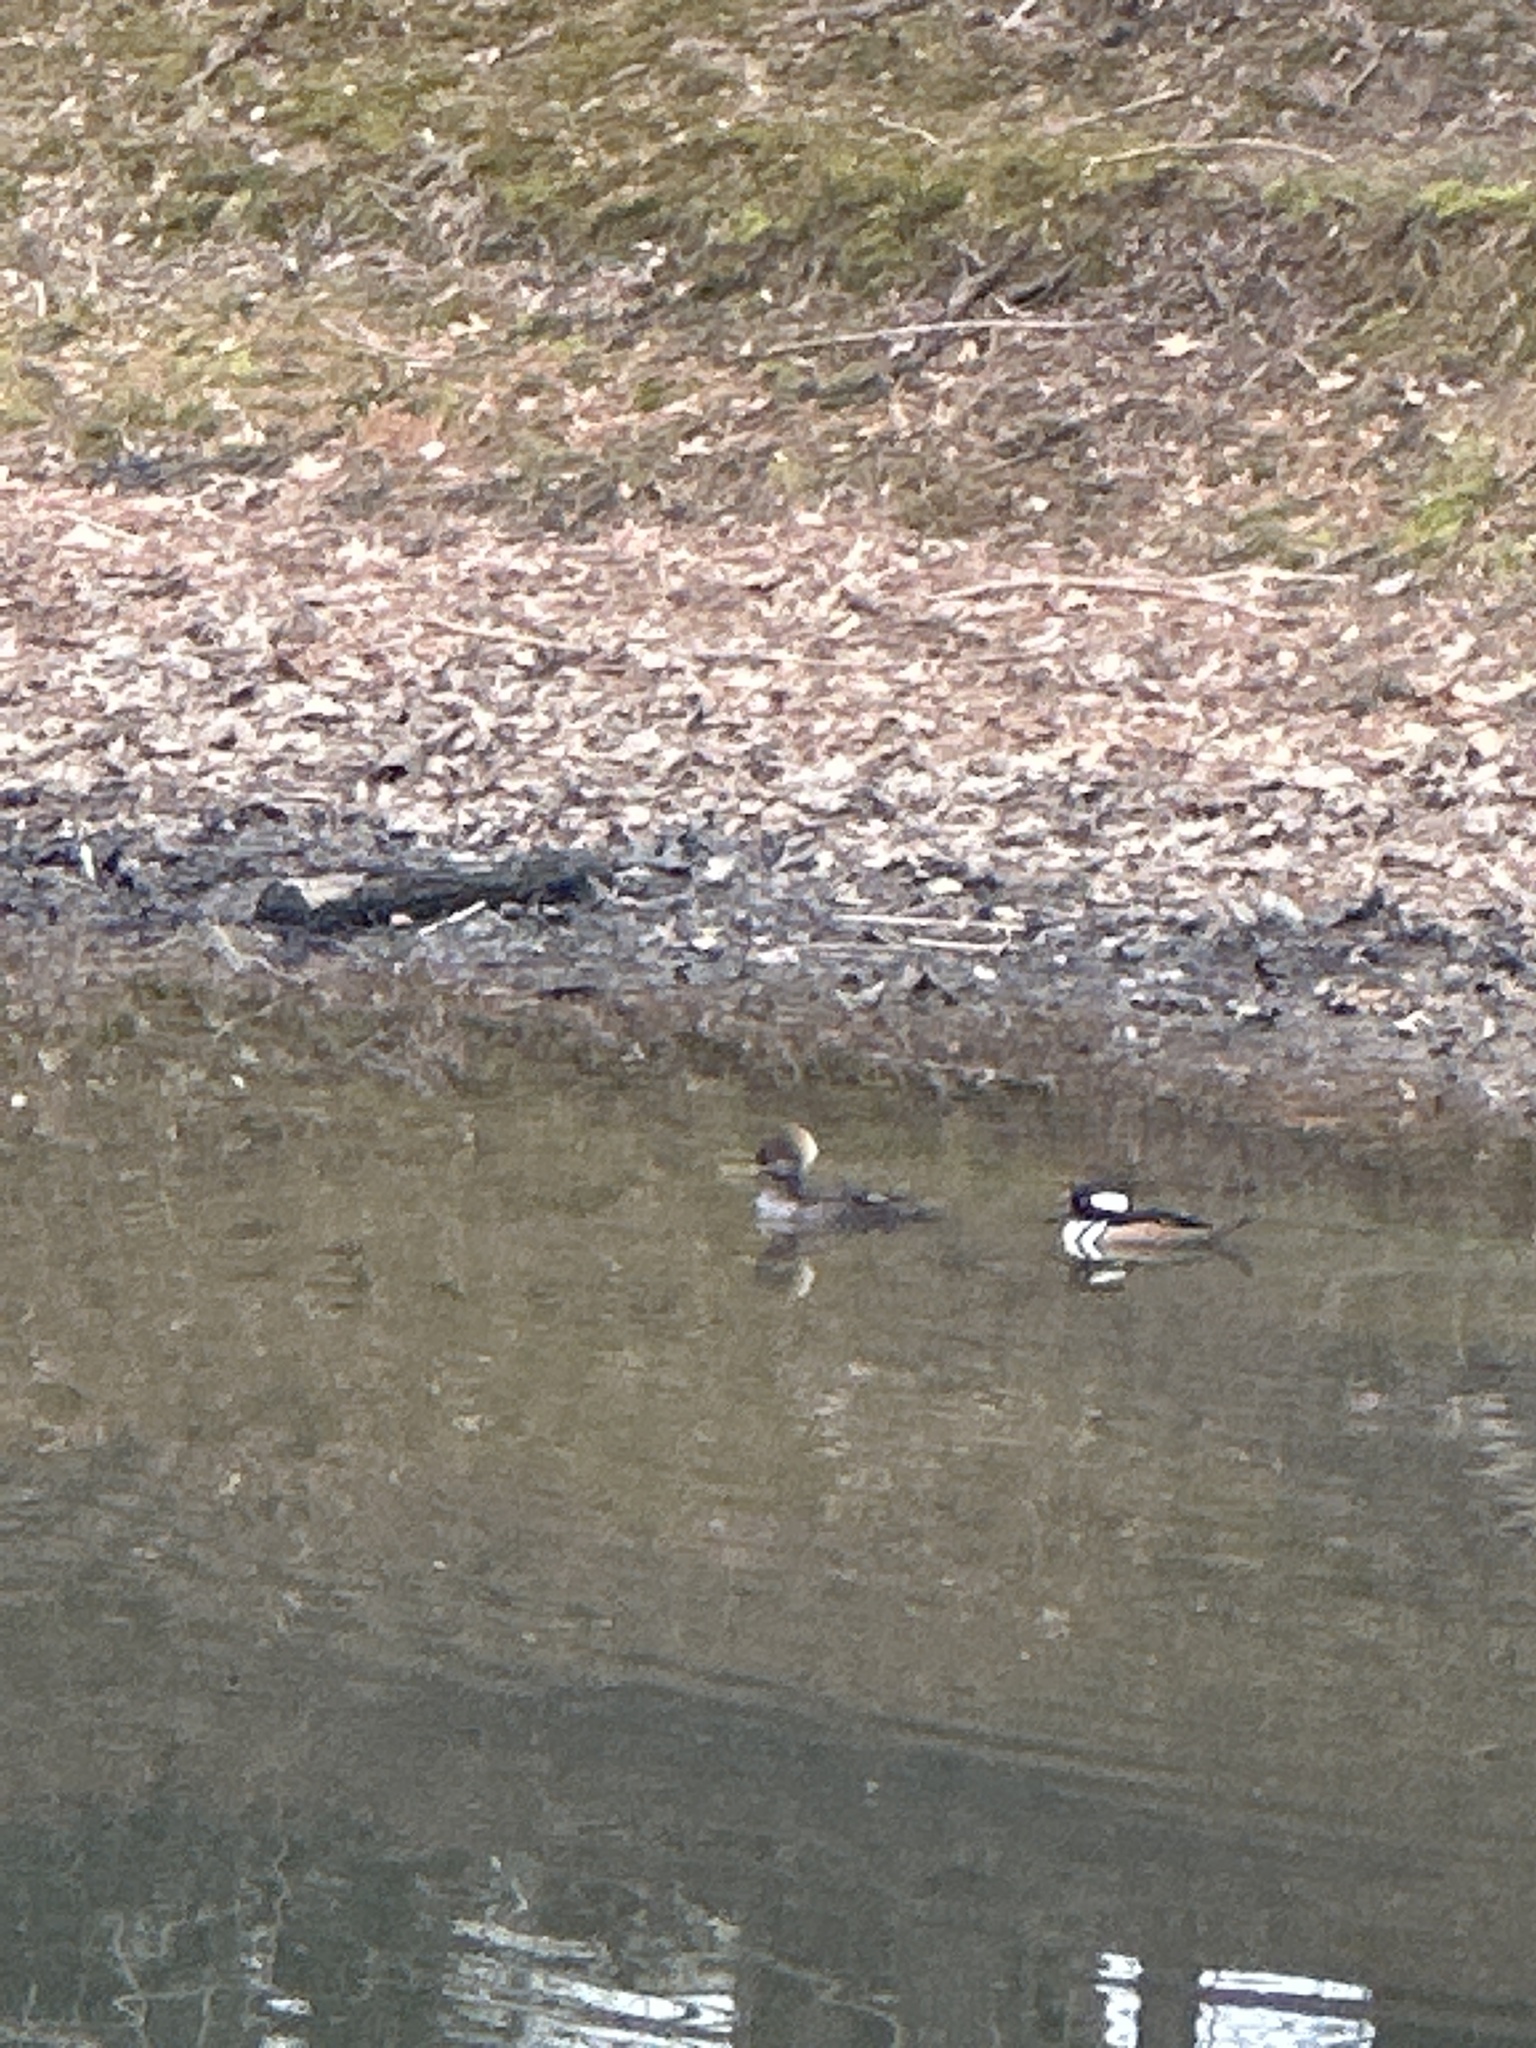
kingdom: Animalia
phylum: Chordata
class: Aves
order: Anseriformes
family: Anatidae
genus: Lophodytes
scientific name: Lophodytes cucullatus
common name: Hooded merganser
